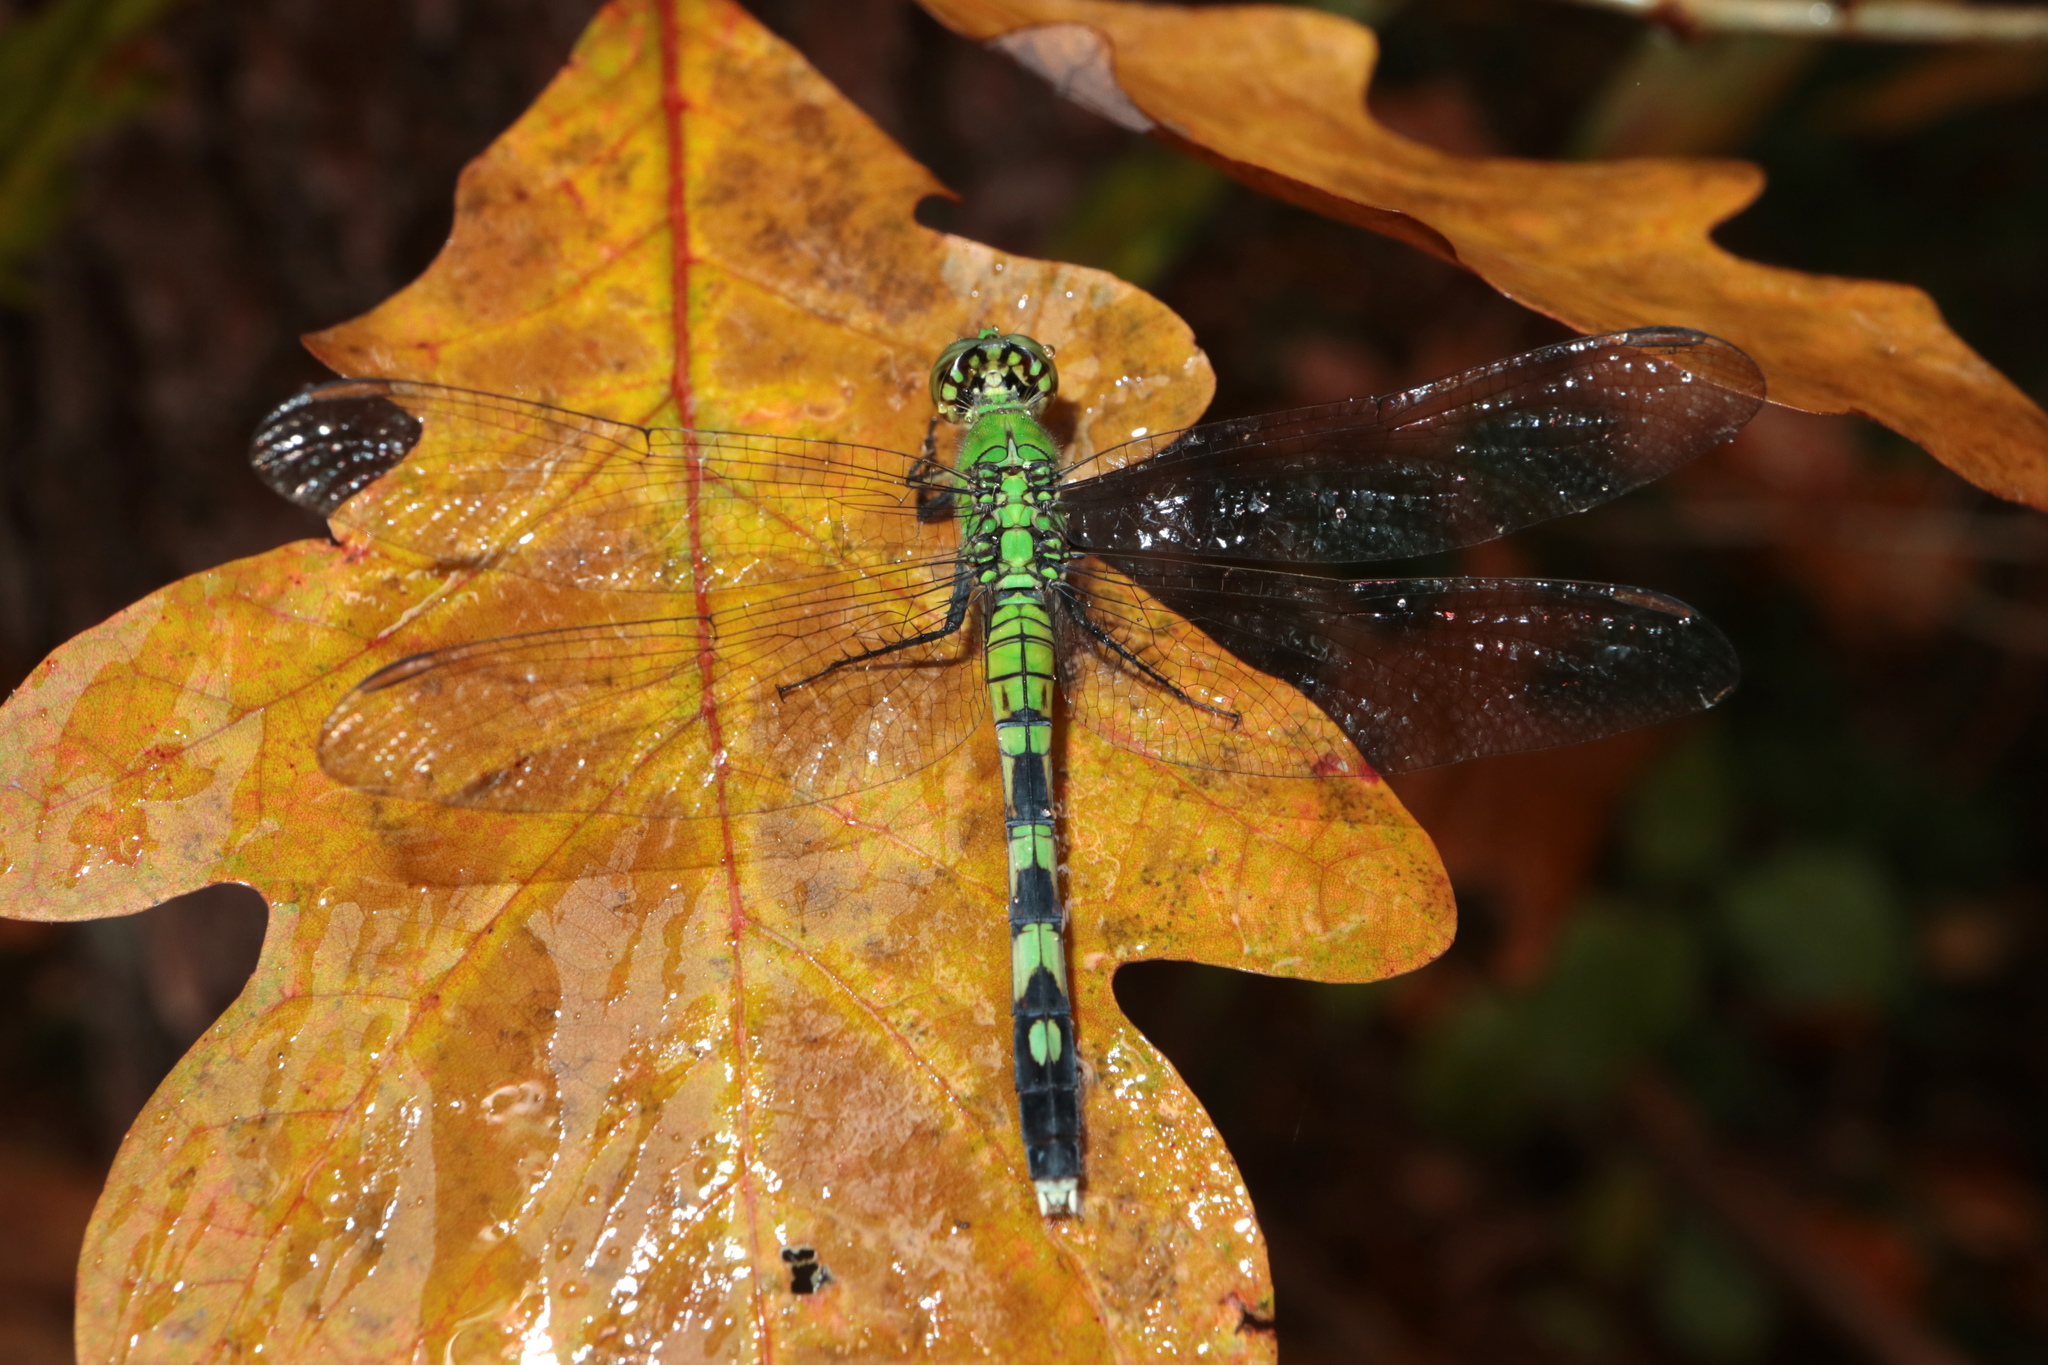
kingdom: Animalia
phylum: Arthropoda
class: Insecta
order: Odonata
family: Libellulidae
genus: Erythemis
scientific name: Erythemis simplicicollis
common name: Eastern pondhawk
